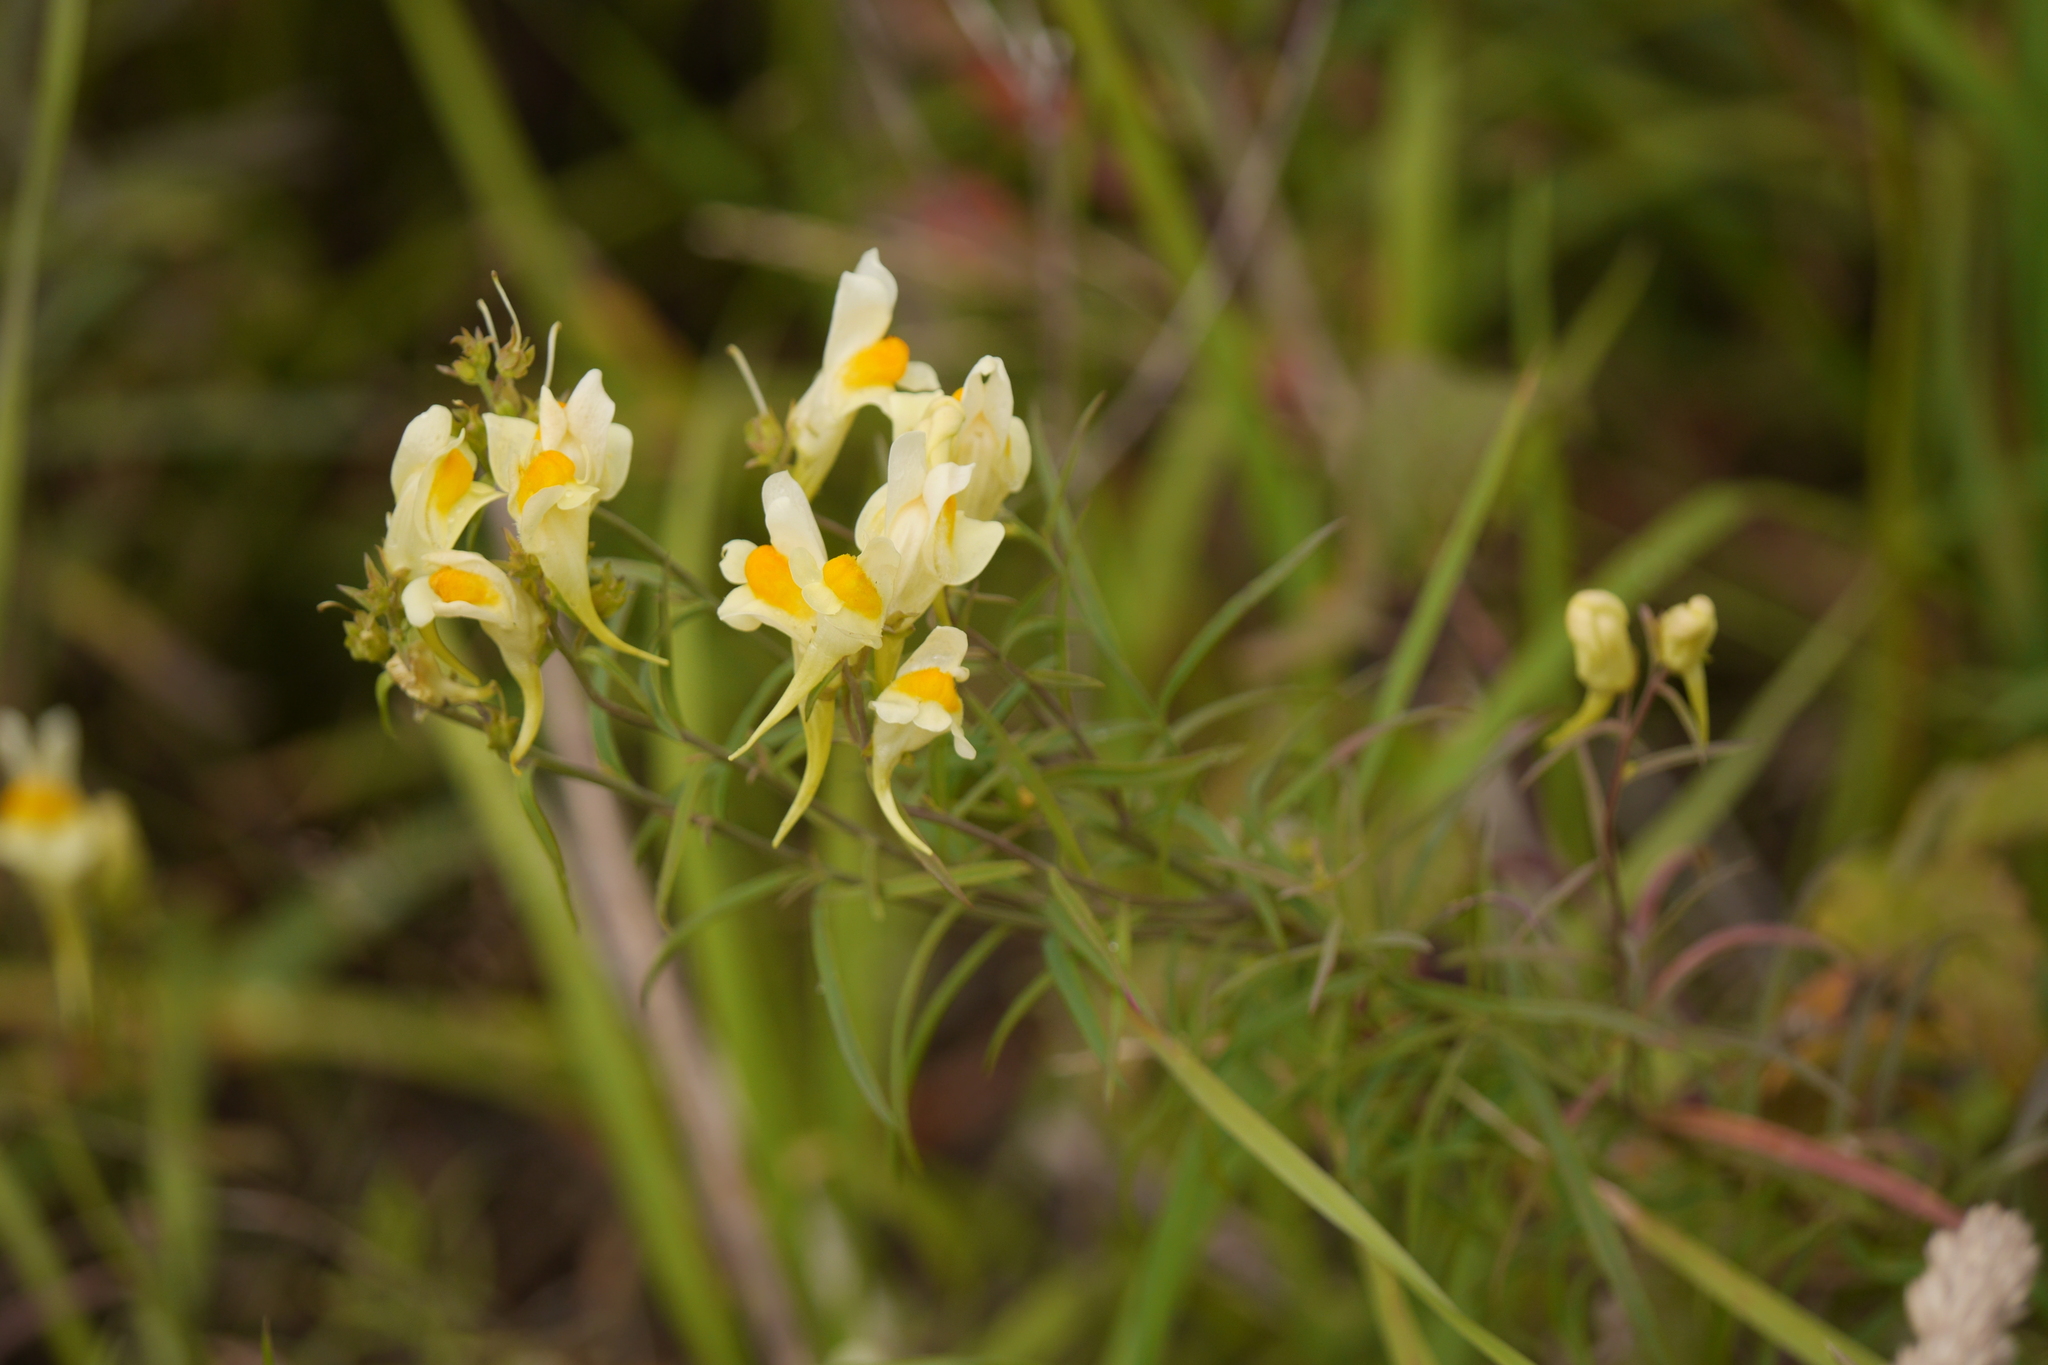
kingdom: Plantae
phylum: Tracheophyta
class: Magnoliopsida
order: Lamiales
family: Plantaginaceae
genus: Linaria
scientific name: Linaria vulgaris
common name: Butter and eggs
